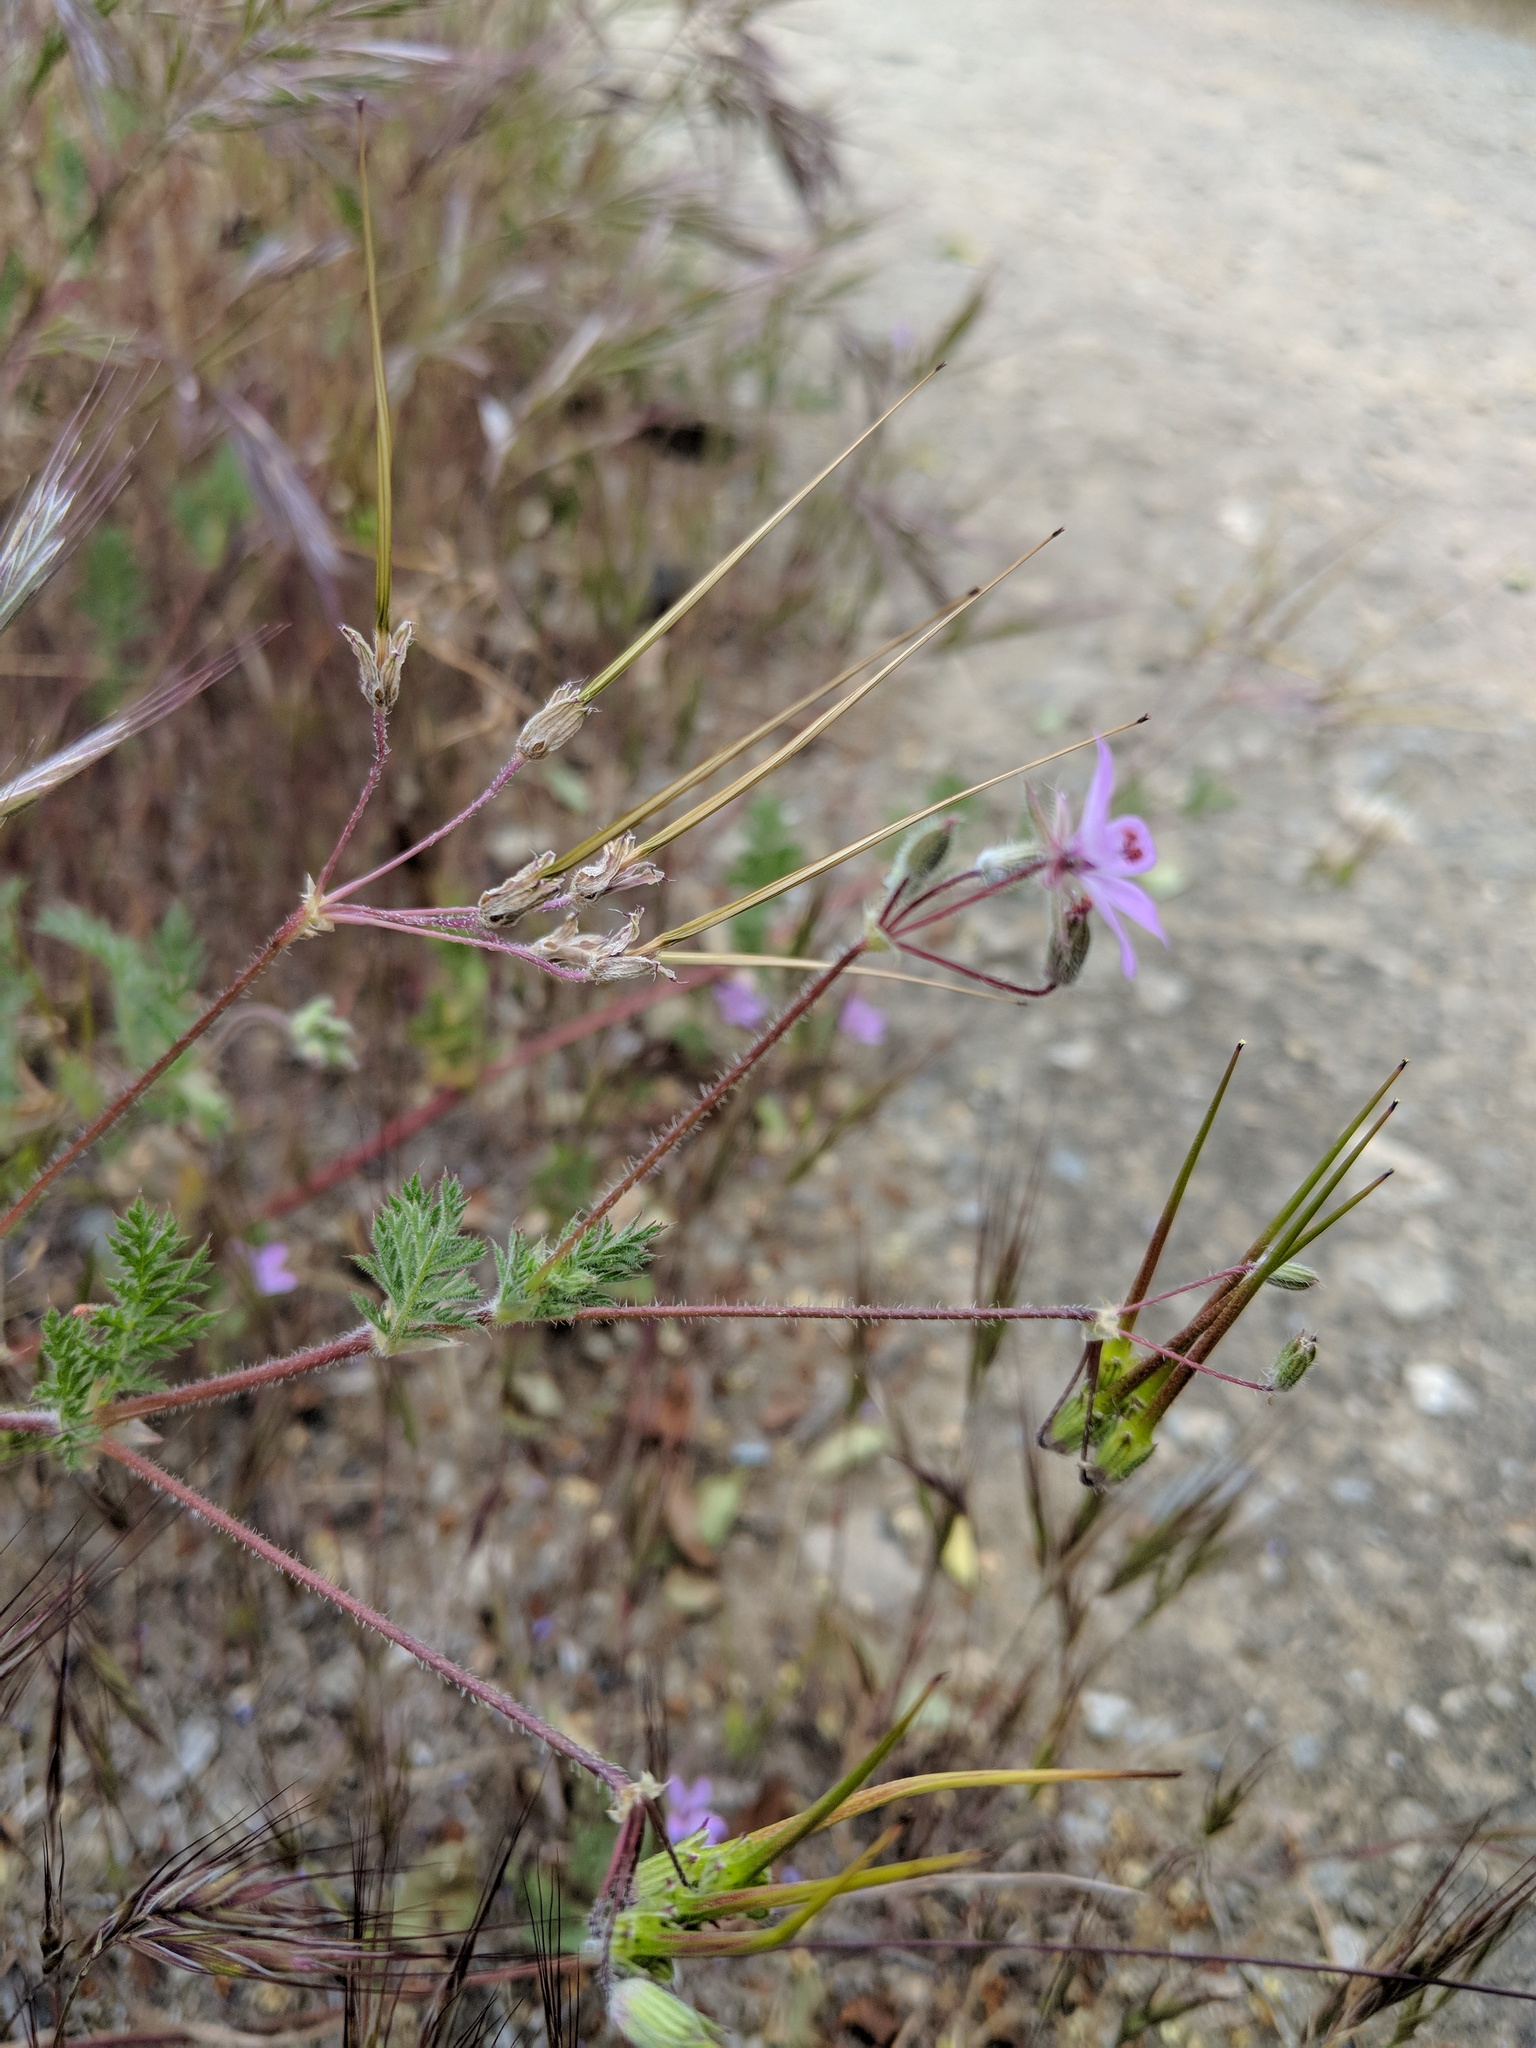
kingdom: Plantae
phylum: Tracheophyta
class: Magnoliopsida
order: Geraniales
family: Geraniaceae
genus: Erodium
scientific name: Erodium cicutarium
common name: Common stork's-bill
